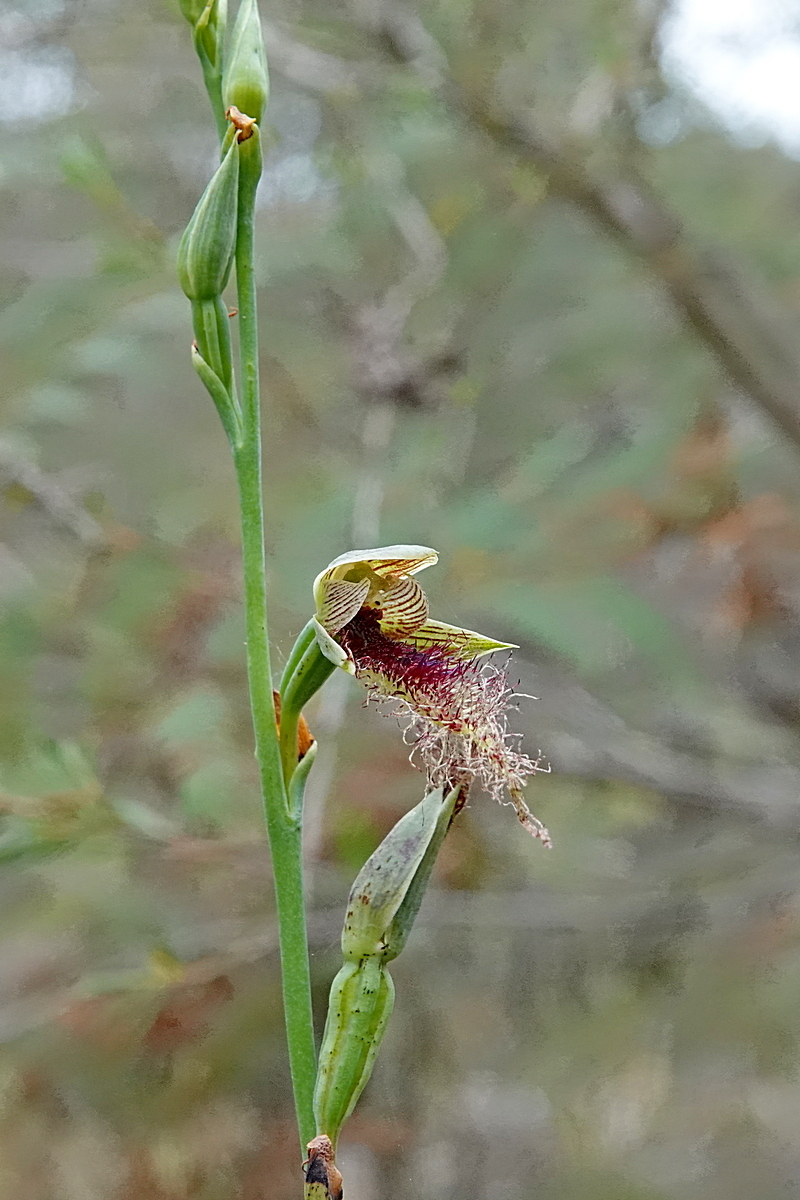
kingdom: Plantae
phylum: Tracheophyta
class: Liliopsida
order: Asparagales
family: Orchidaceae
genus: Calochilus
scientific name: Calochilus kalaru
